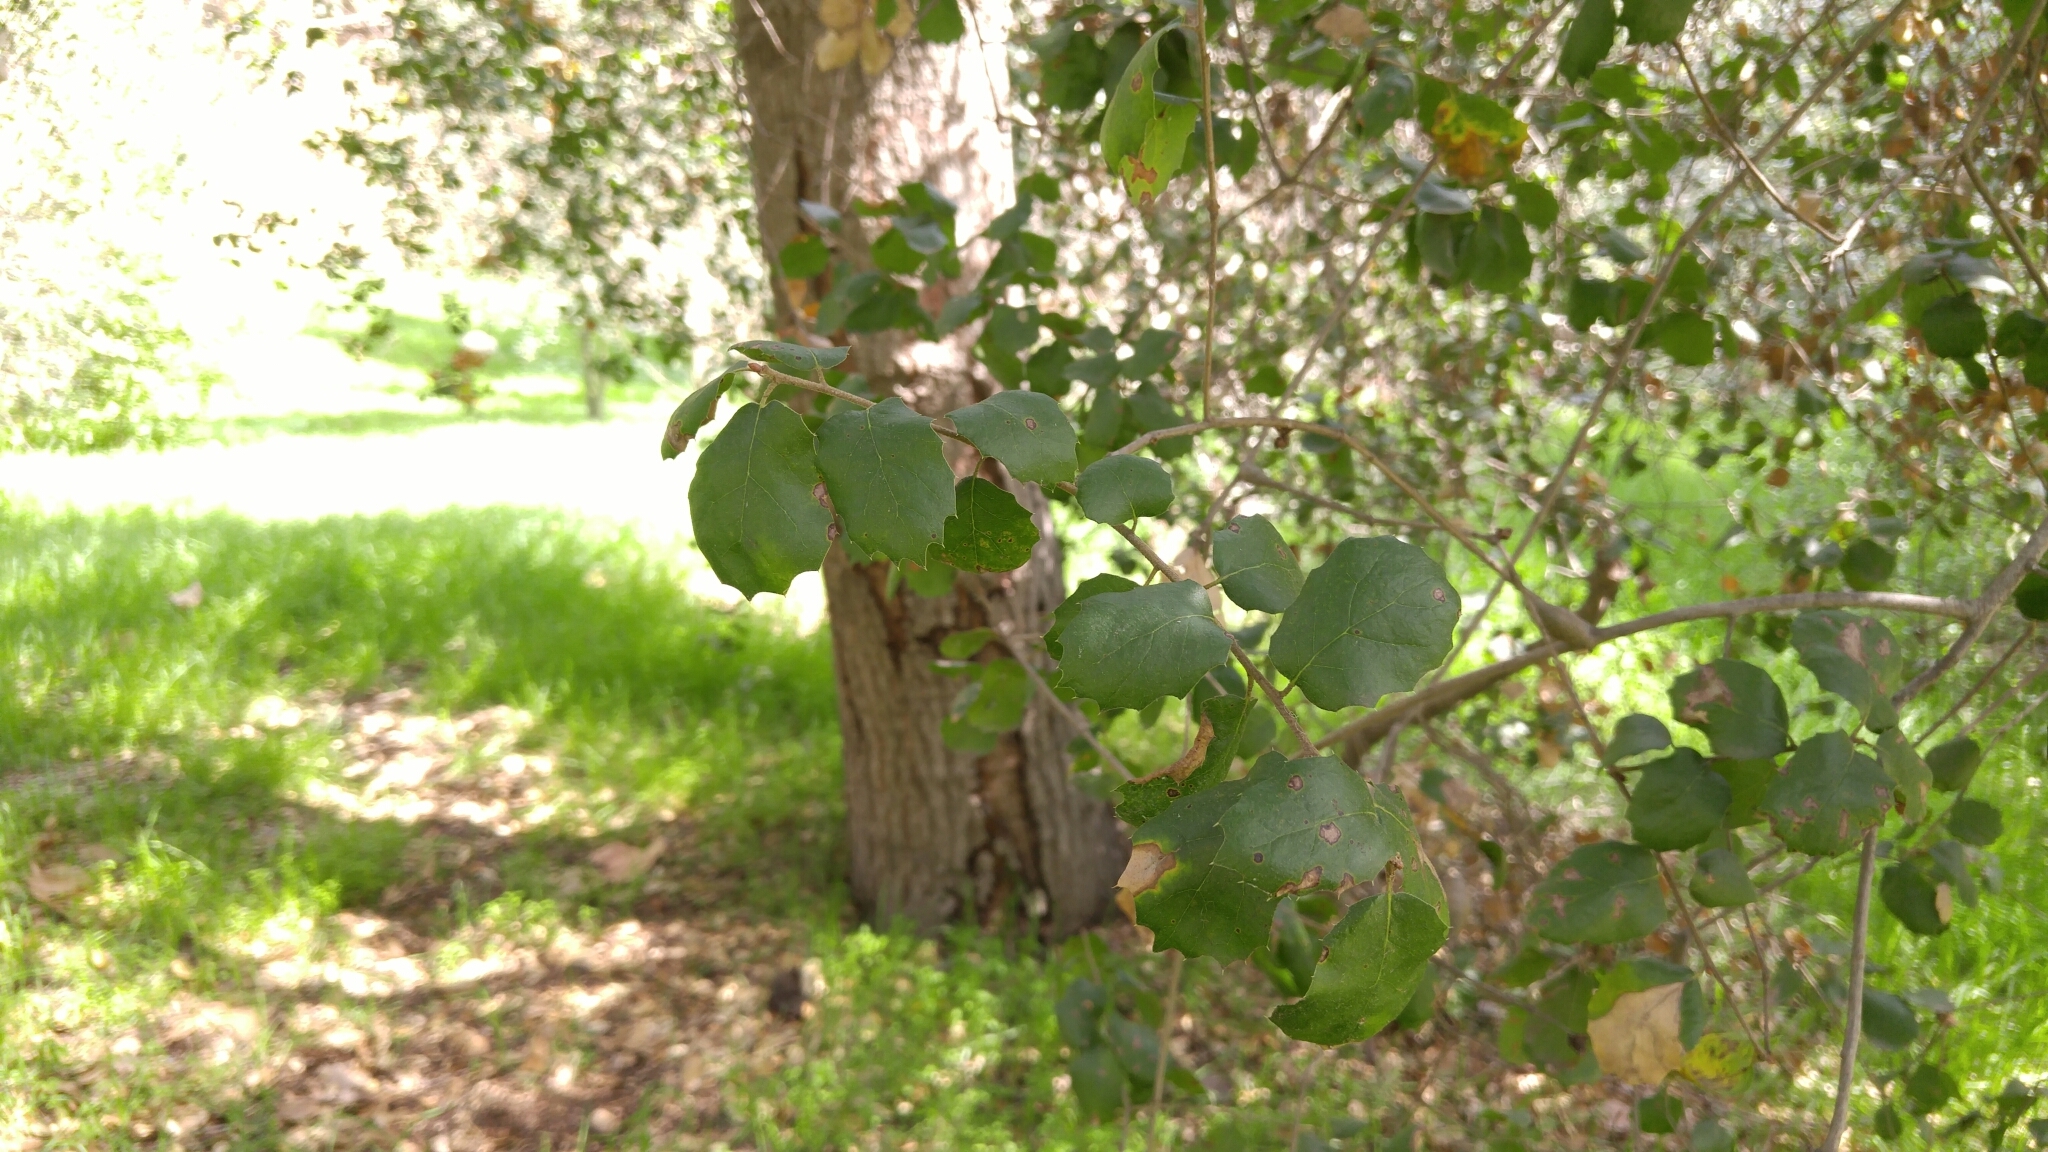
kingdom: Plantae
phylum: Tracheophyta
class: Magnoliopsida
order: Fagales
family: Fagaceae
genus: Quercus
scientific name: Quercus agrifolia
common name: California live oak
